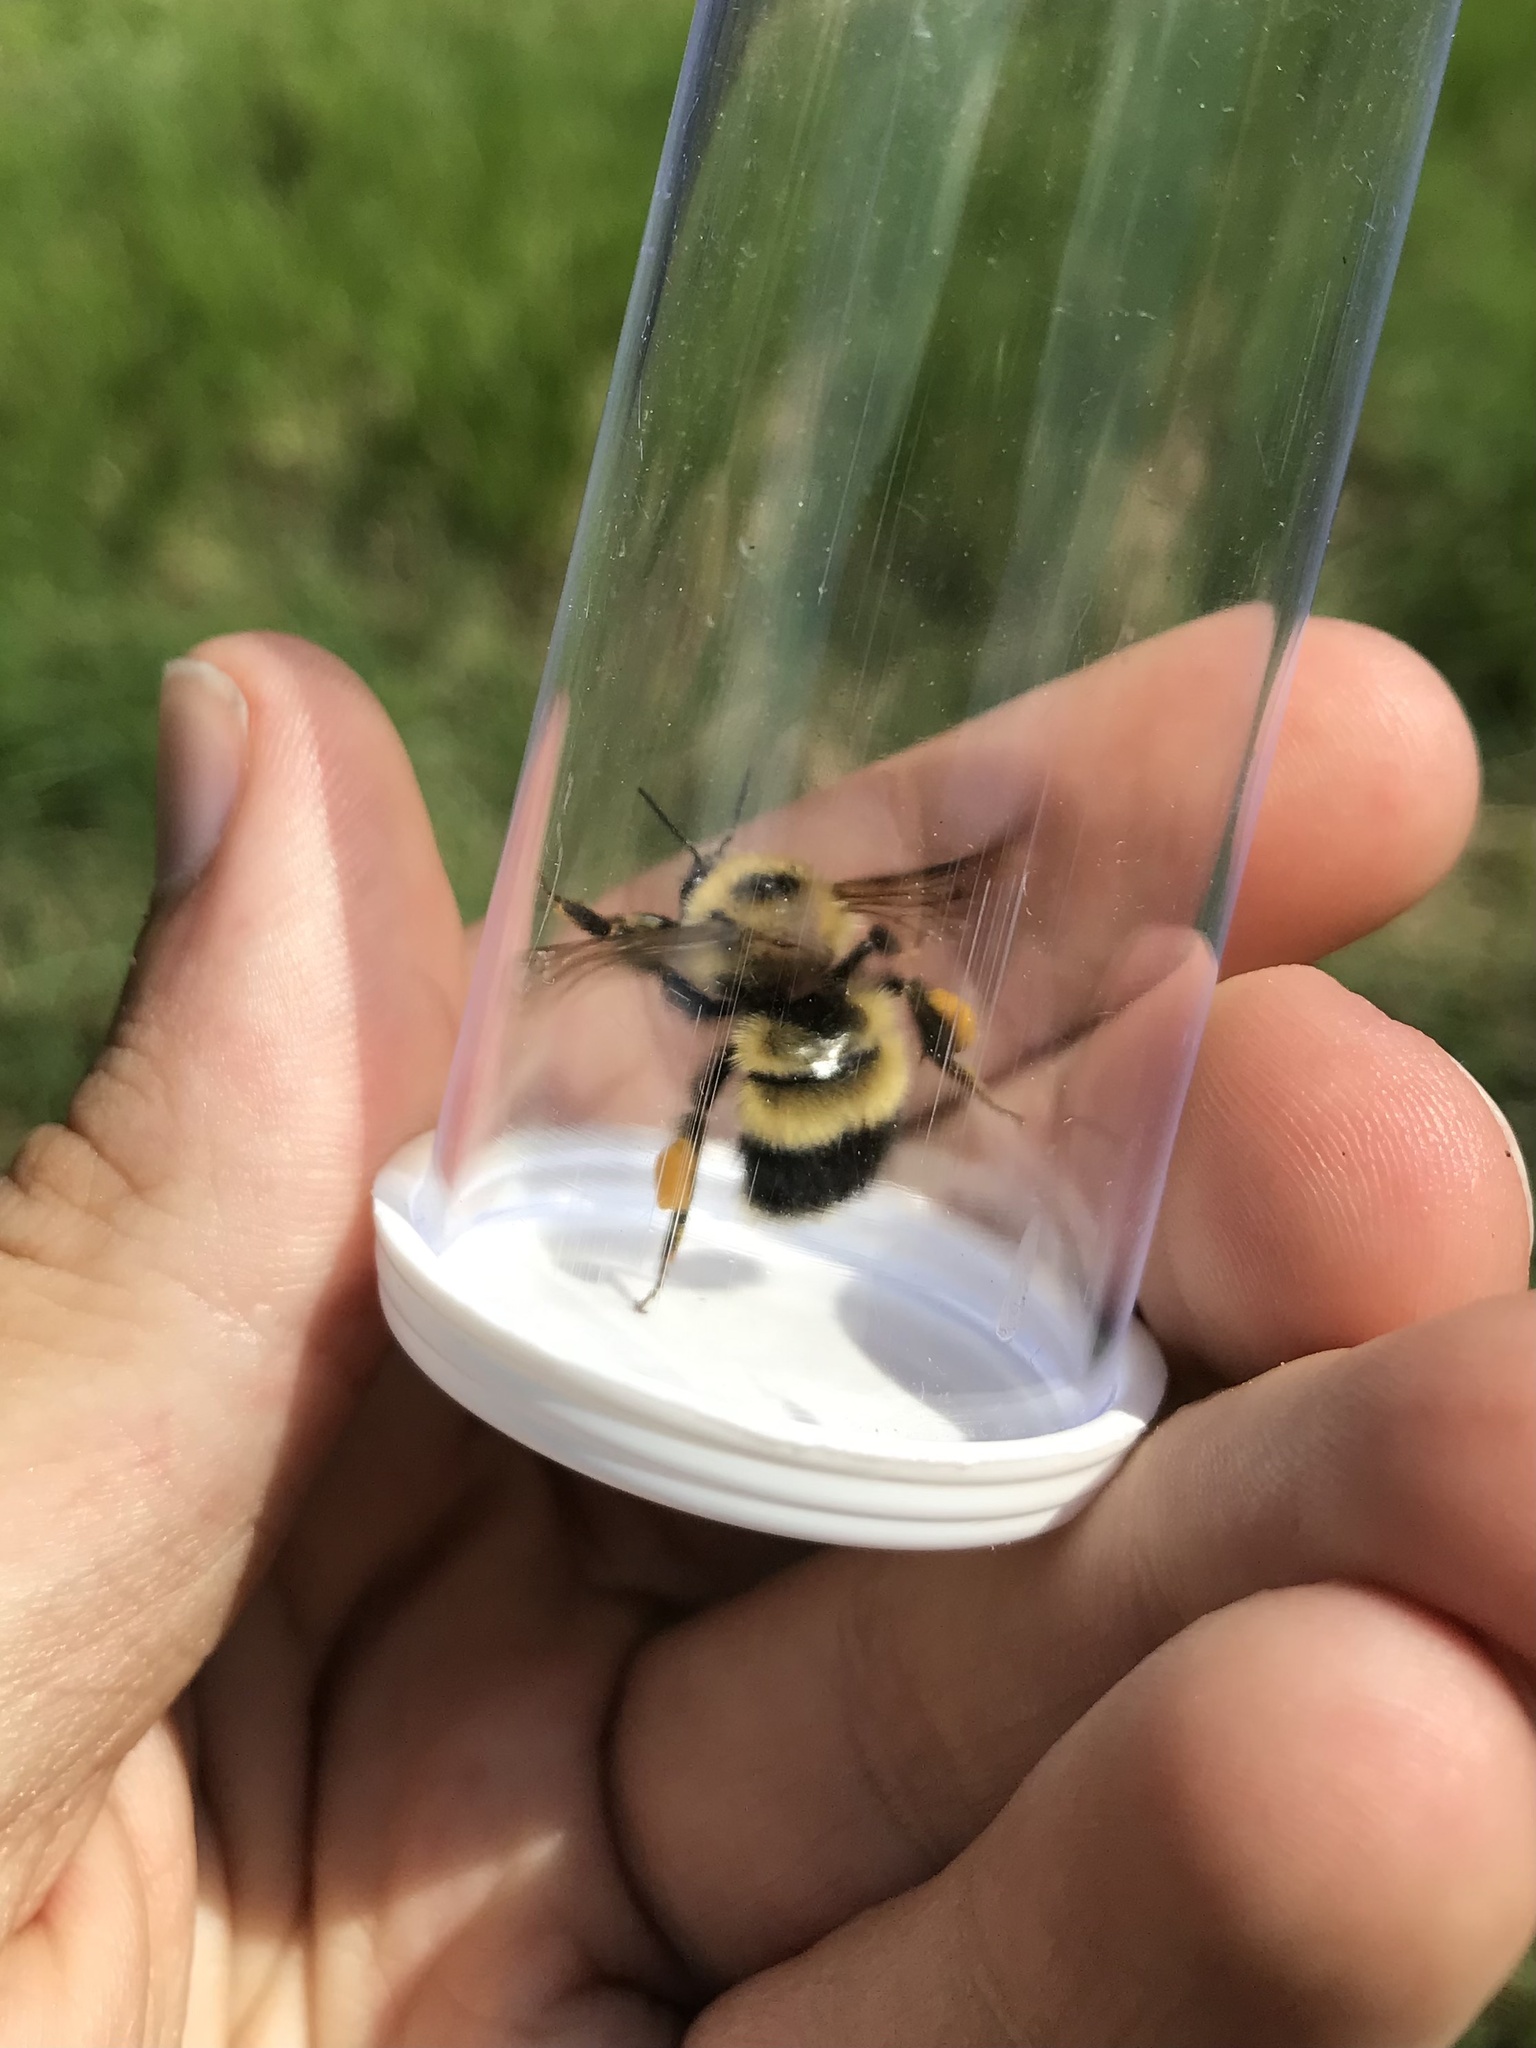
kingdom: Animalia
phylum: Arthropoda
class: Insecta
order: Hymenoptera
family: Apidae
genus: Bombus
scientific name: Bombus rufocinctus
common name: Red-belted bumble bee
